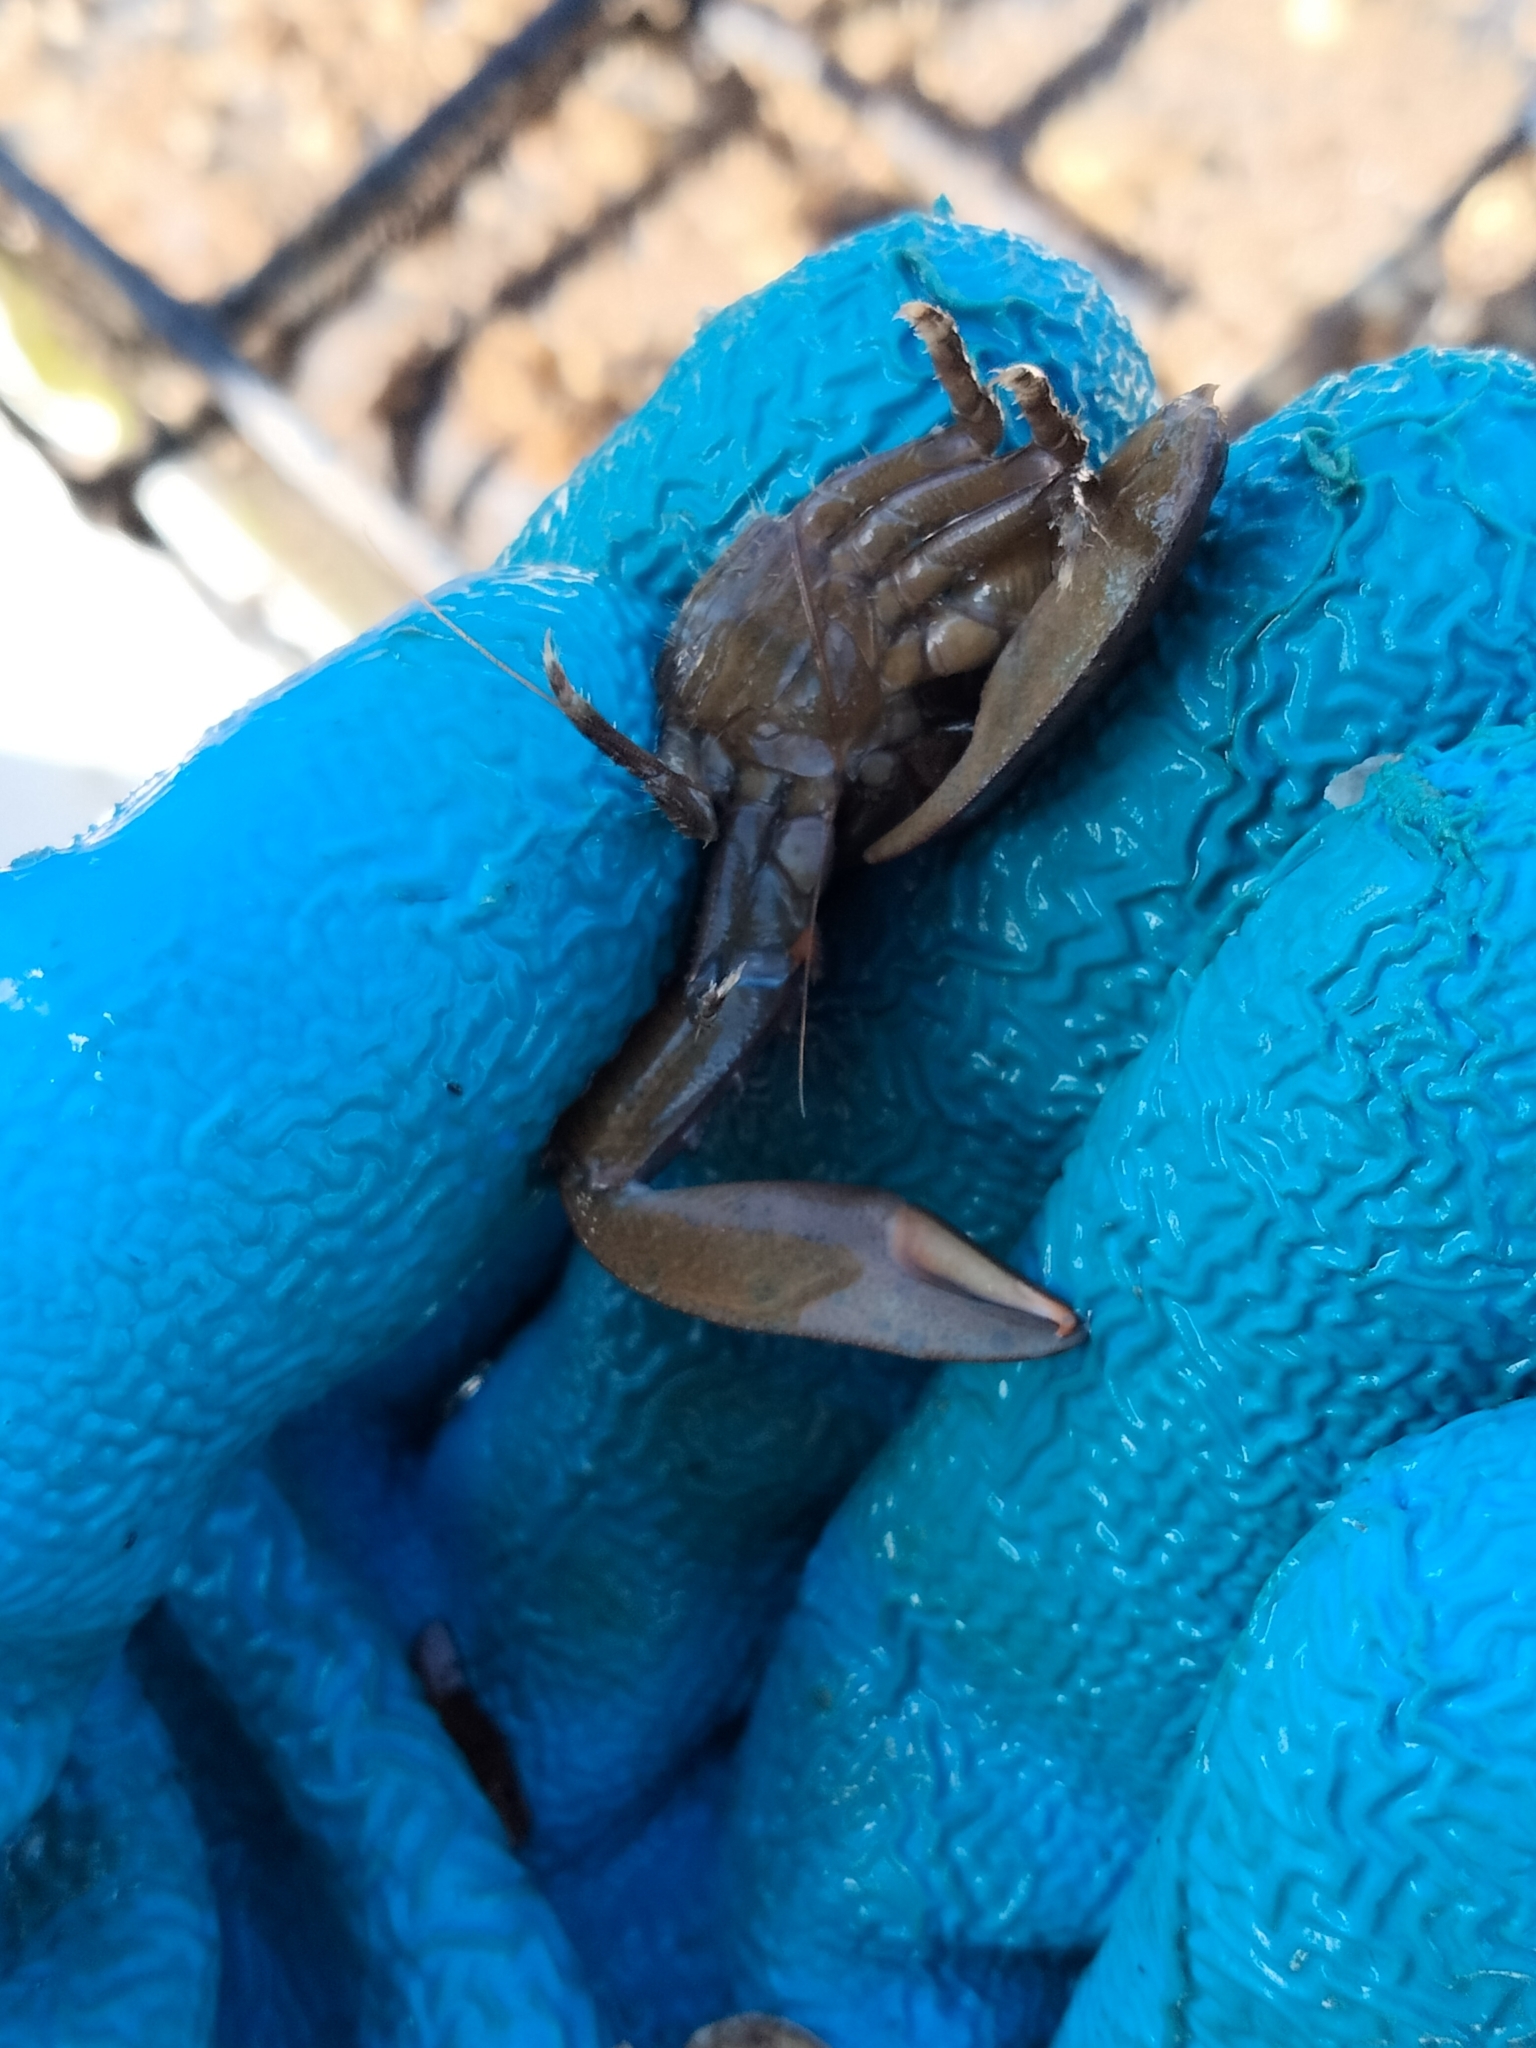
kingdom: Animalia
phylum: Arthropoda
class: Malacostraca
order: Decapoda
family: Porcellanidae
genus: Petrolisthes
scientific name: Petrolisthes armatus
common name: Green porcelain crab
